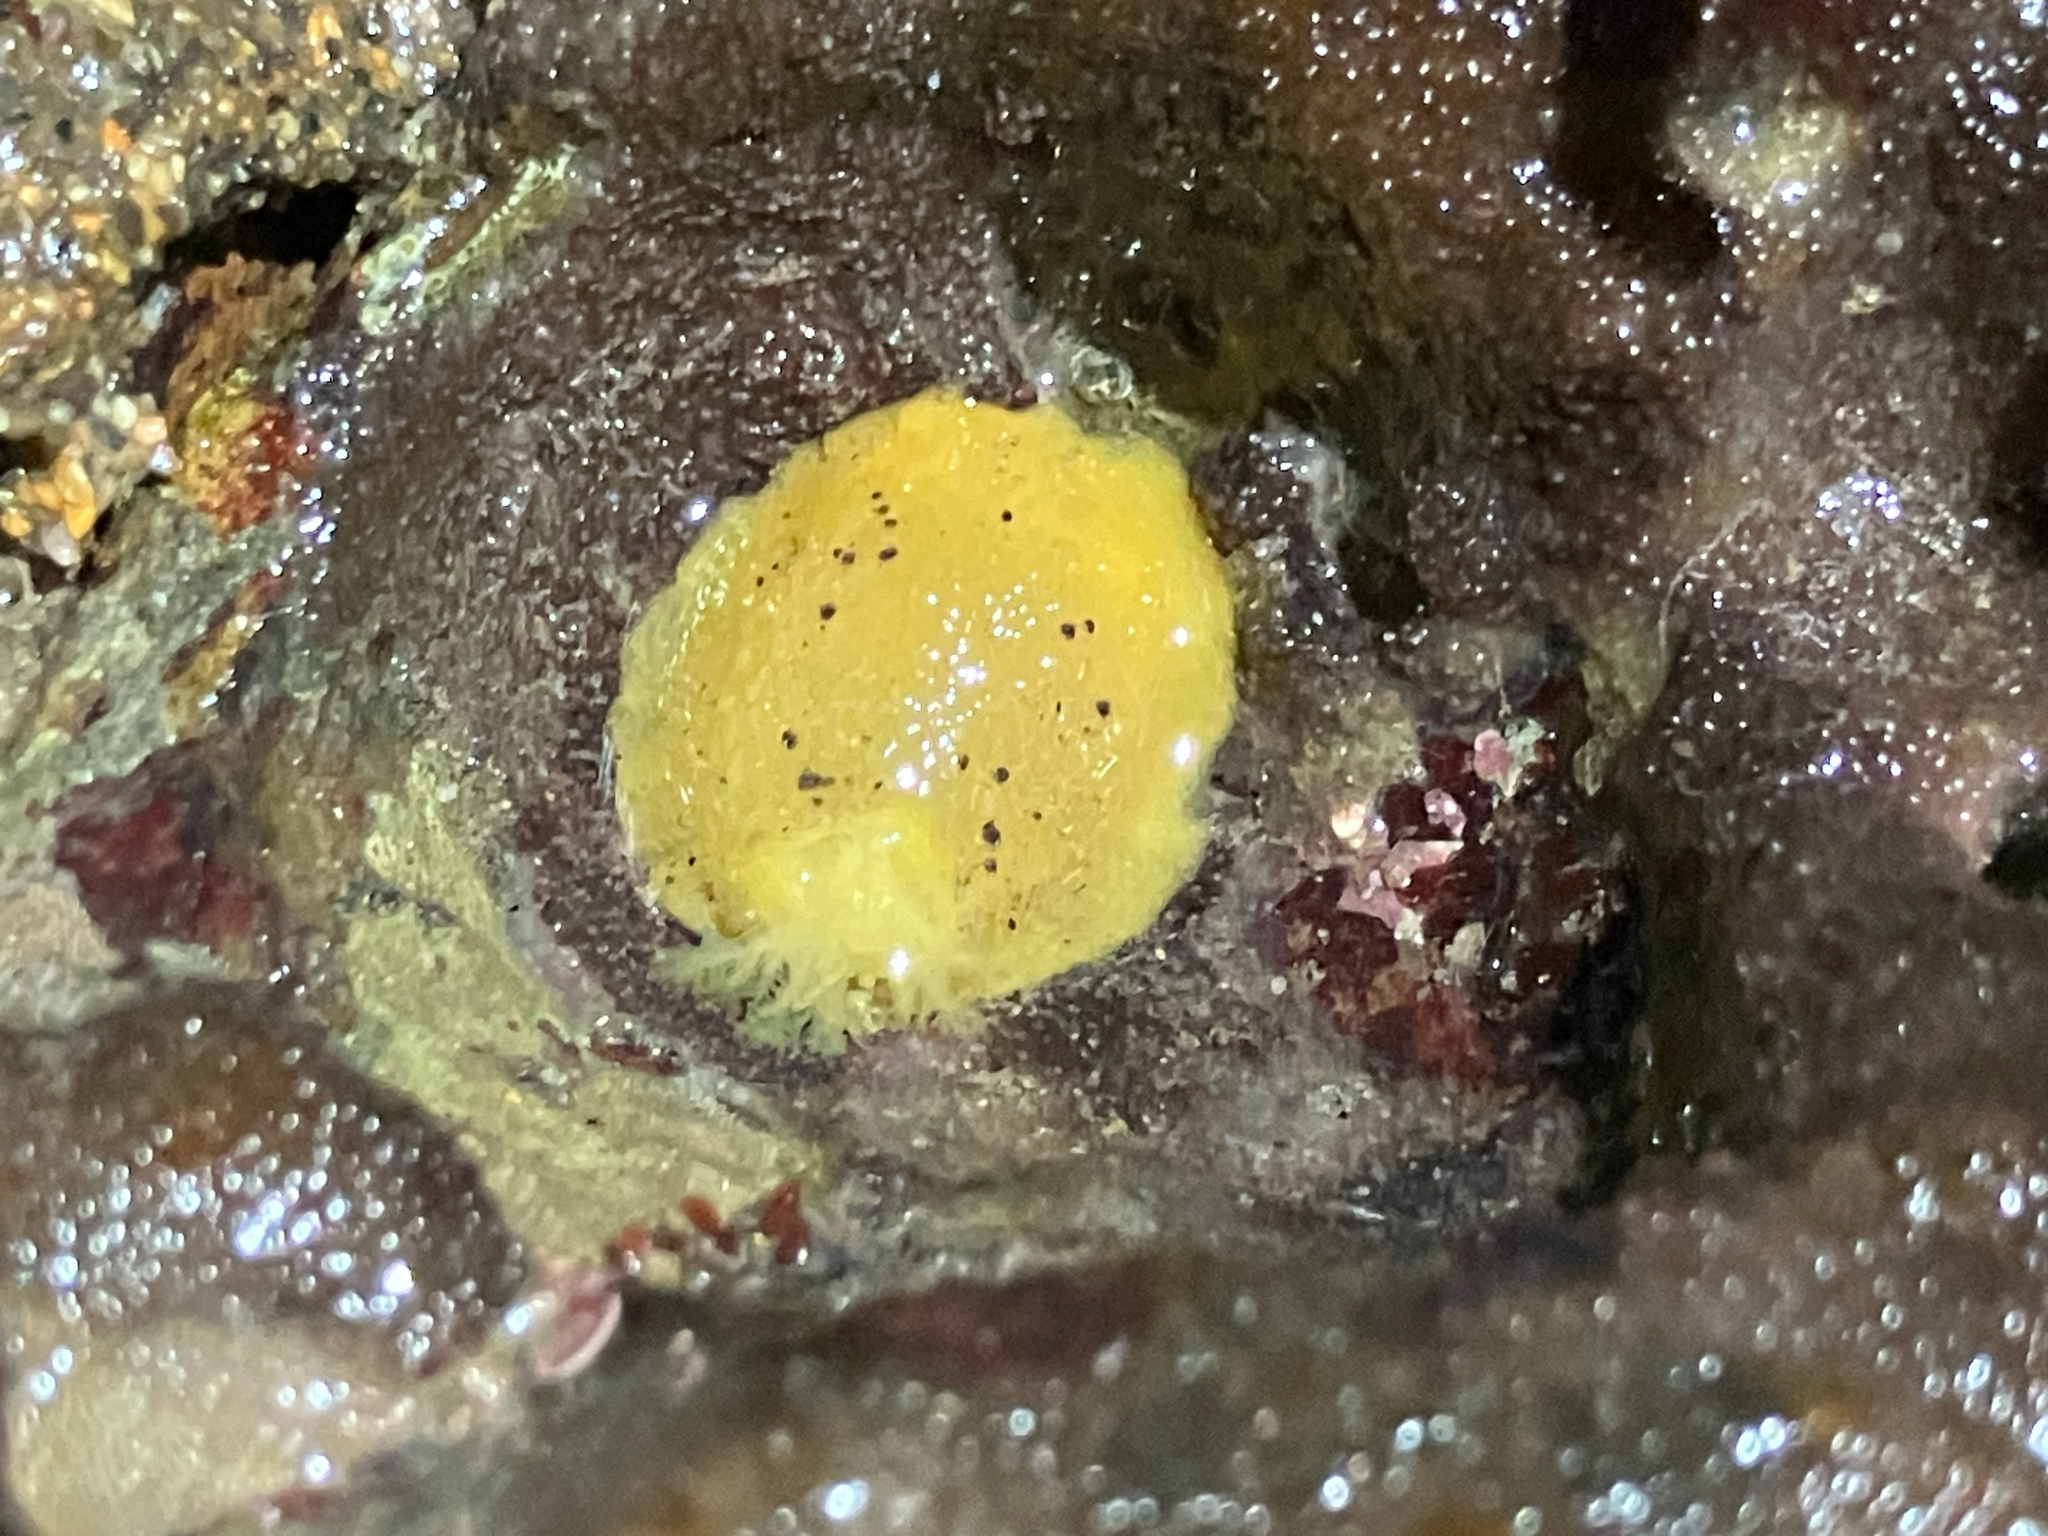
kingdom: Animalia
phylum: Mollusca
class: Gastropoda
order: Nudibranchia
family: Dorididae
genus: Doris
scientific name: Doris montereyensis
